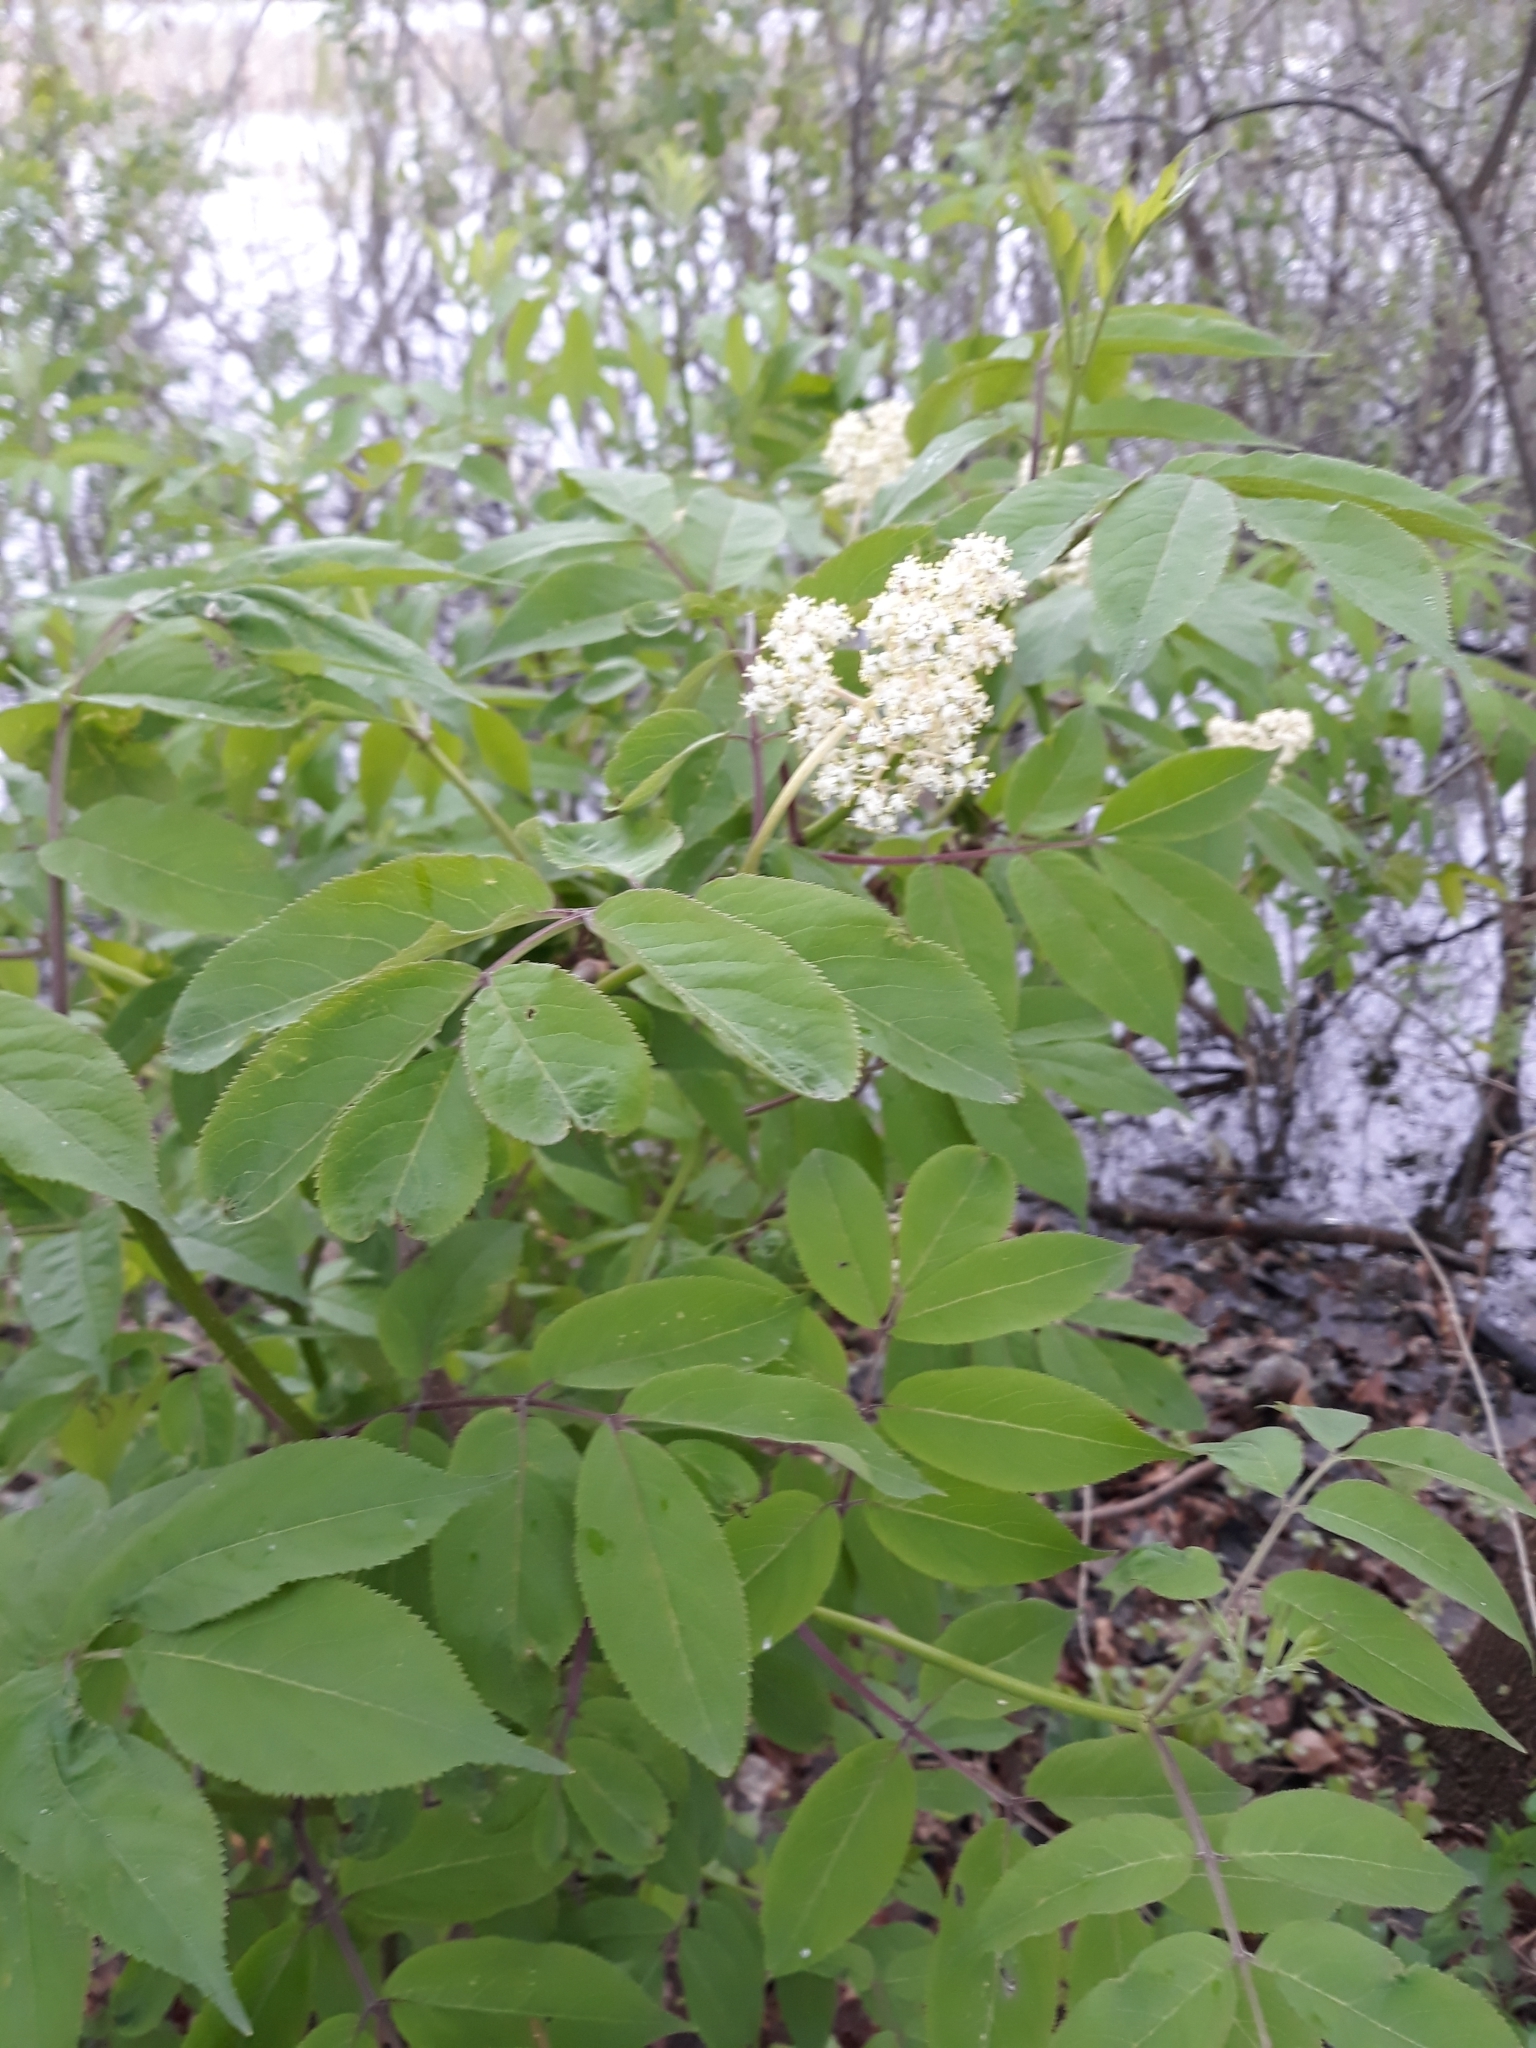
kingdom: Plantae
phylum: Tracheophyta
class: Magnoliopsida
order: Dipsacales
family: Viburnaceae
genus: Sambucus
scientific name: Sambucus racemosa
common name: Red-berried elder
